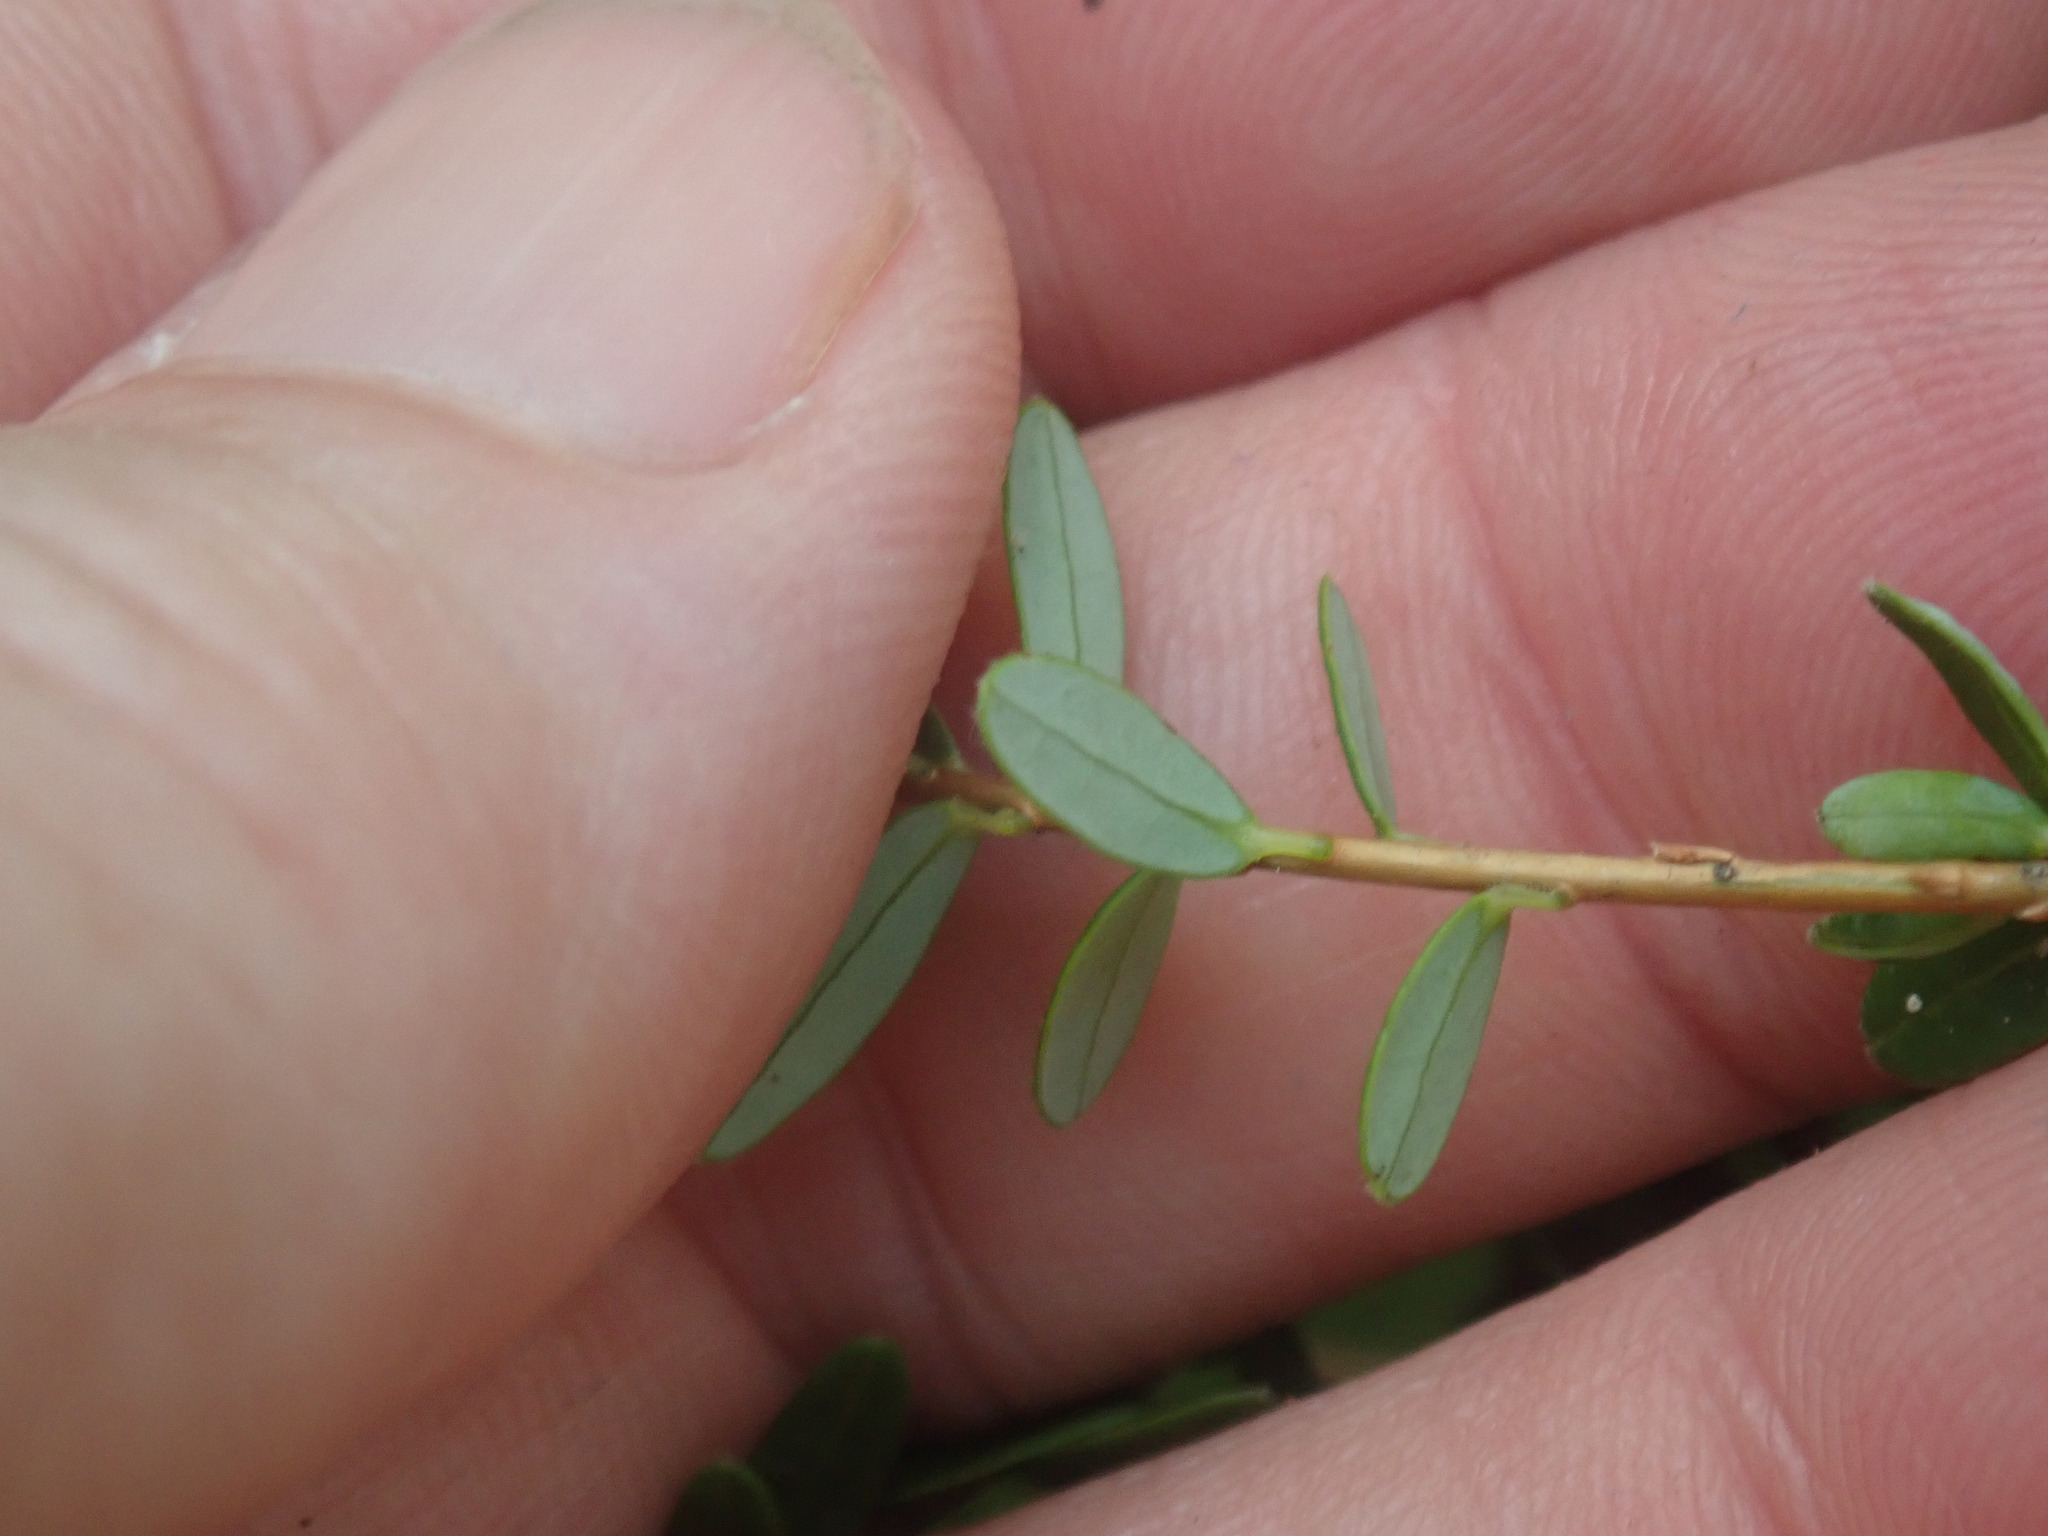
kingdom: Plantae
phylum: Tracheophyta
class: Magnoliopsida
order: Ericales
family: Ericaceae
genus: Vaccinium
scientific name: Vaccinium macrocarpon
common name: American cranberry
